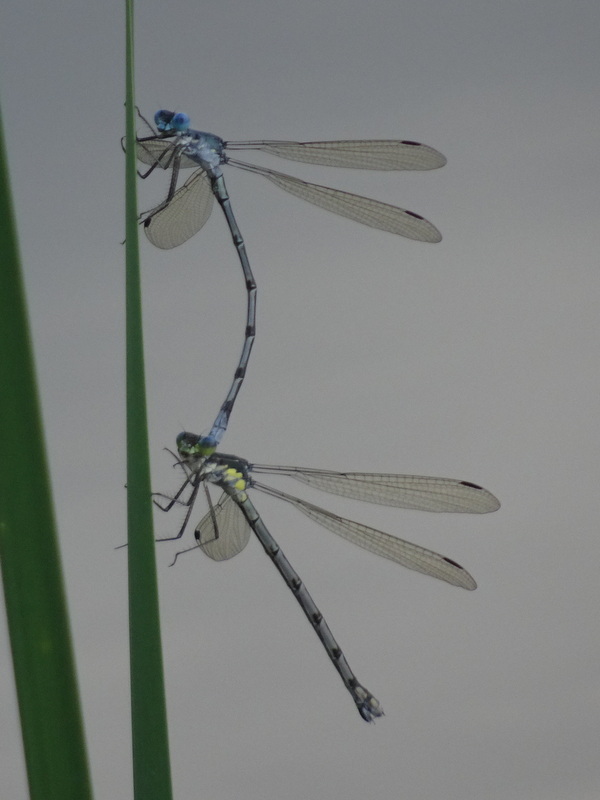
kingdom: Animalia
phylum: Arthropoda
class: Insecta
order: Odonata
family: Lestidae
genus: Lestes
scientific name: Lestes eurinus
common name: Amber-winged spreadwing
